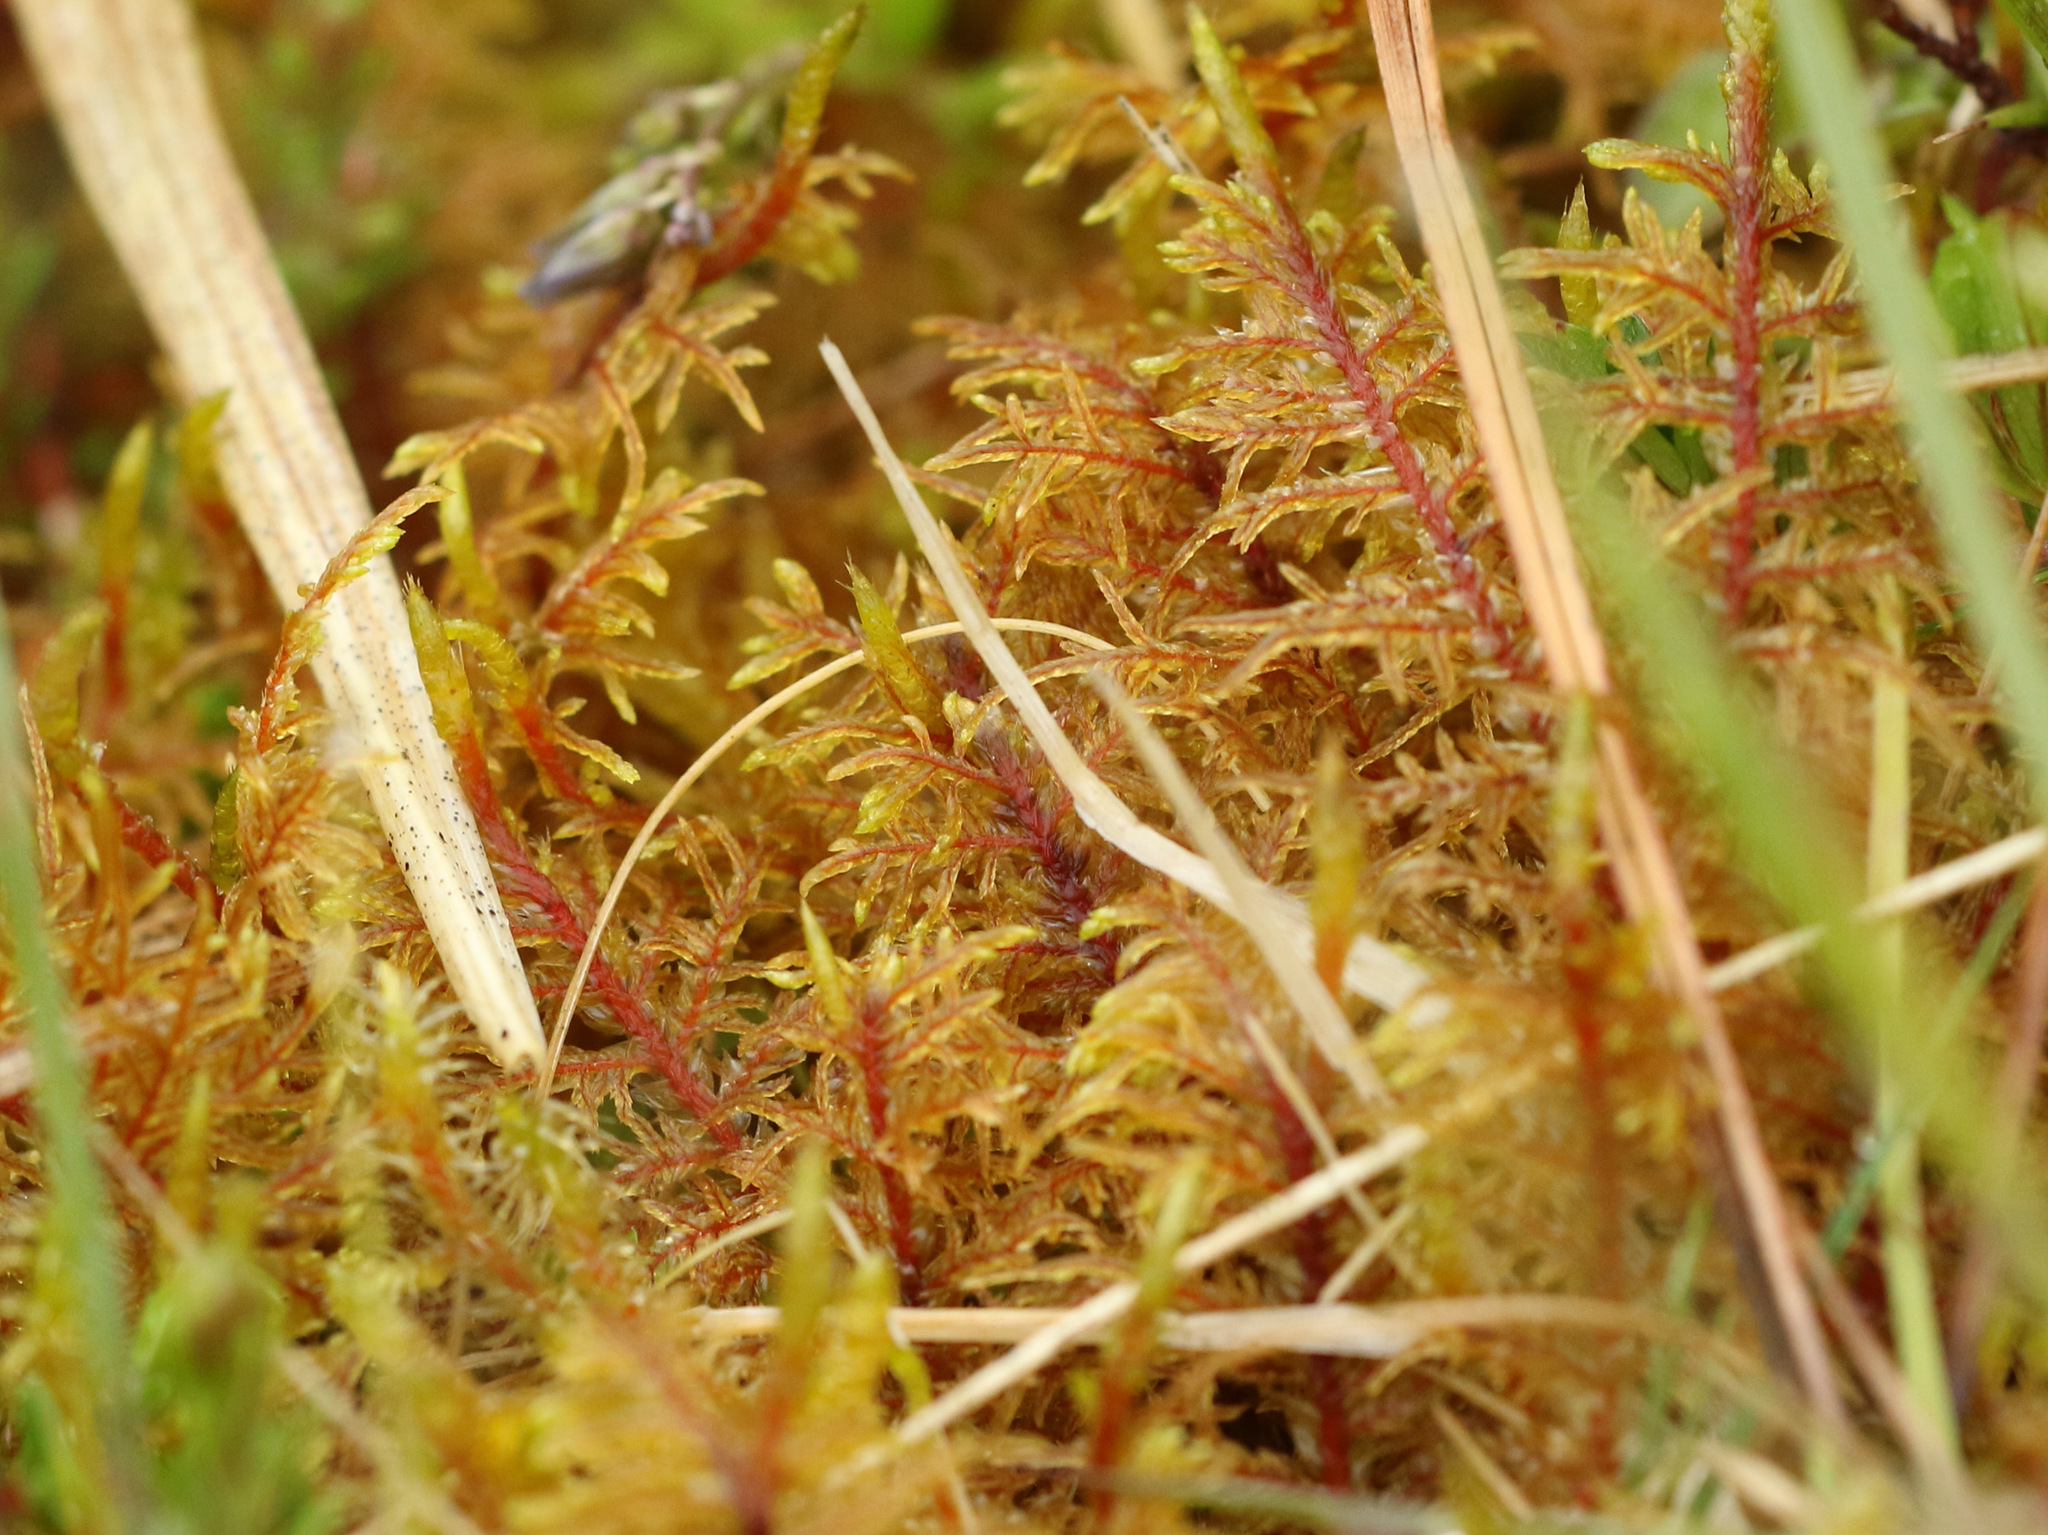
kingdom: Plantae
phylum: Bryophyta
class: Bryopsida
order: Hypnales
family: Hylocomiaceae
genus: Hylocomium
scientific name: Hylocomium splendens
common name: Stairstep moss
